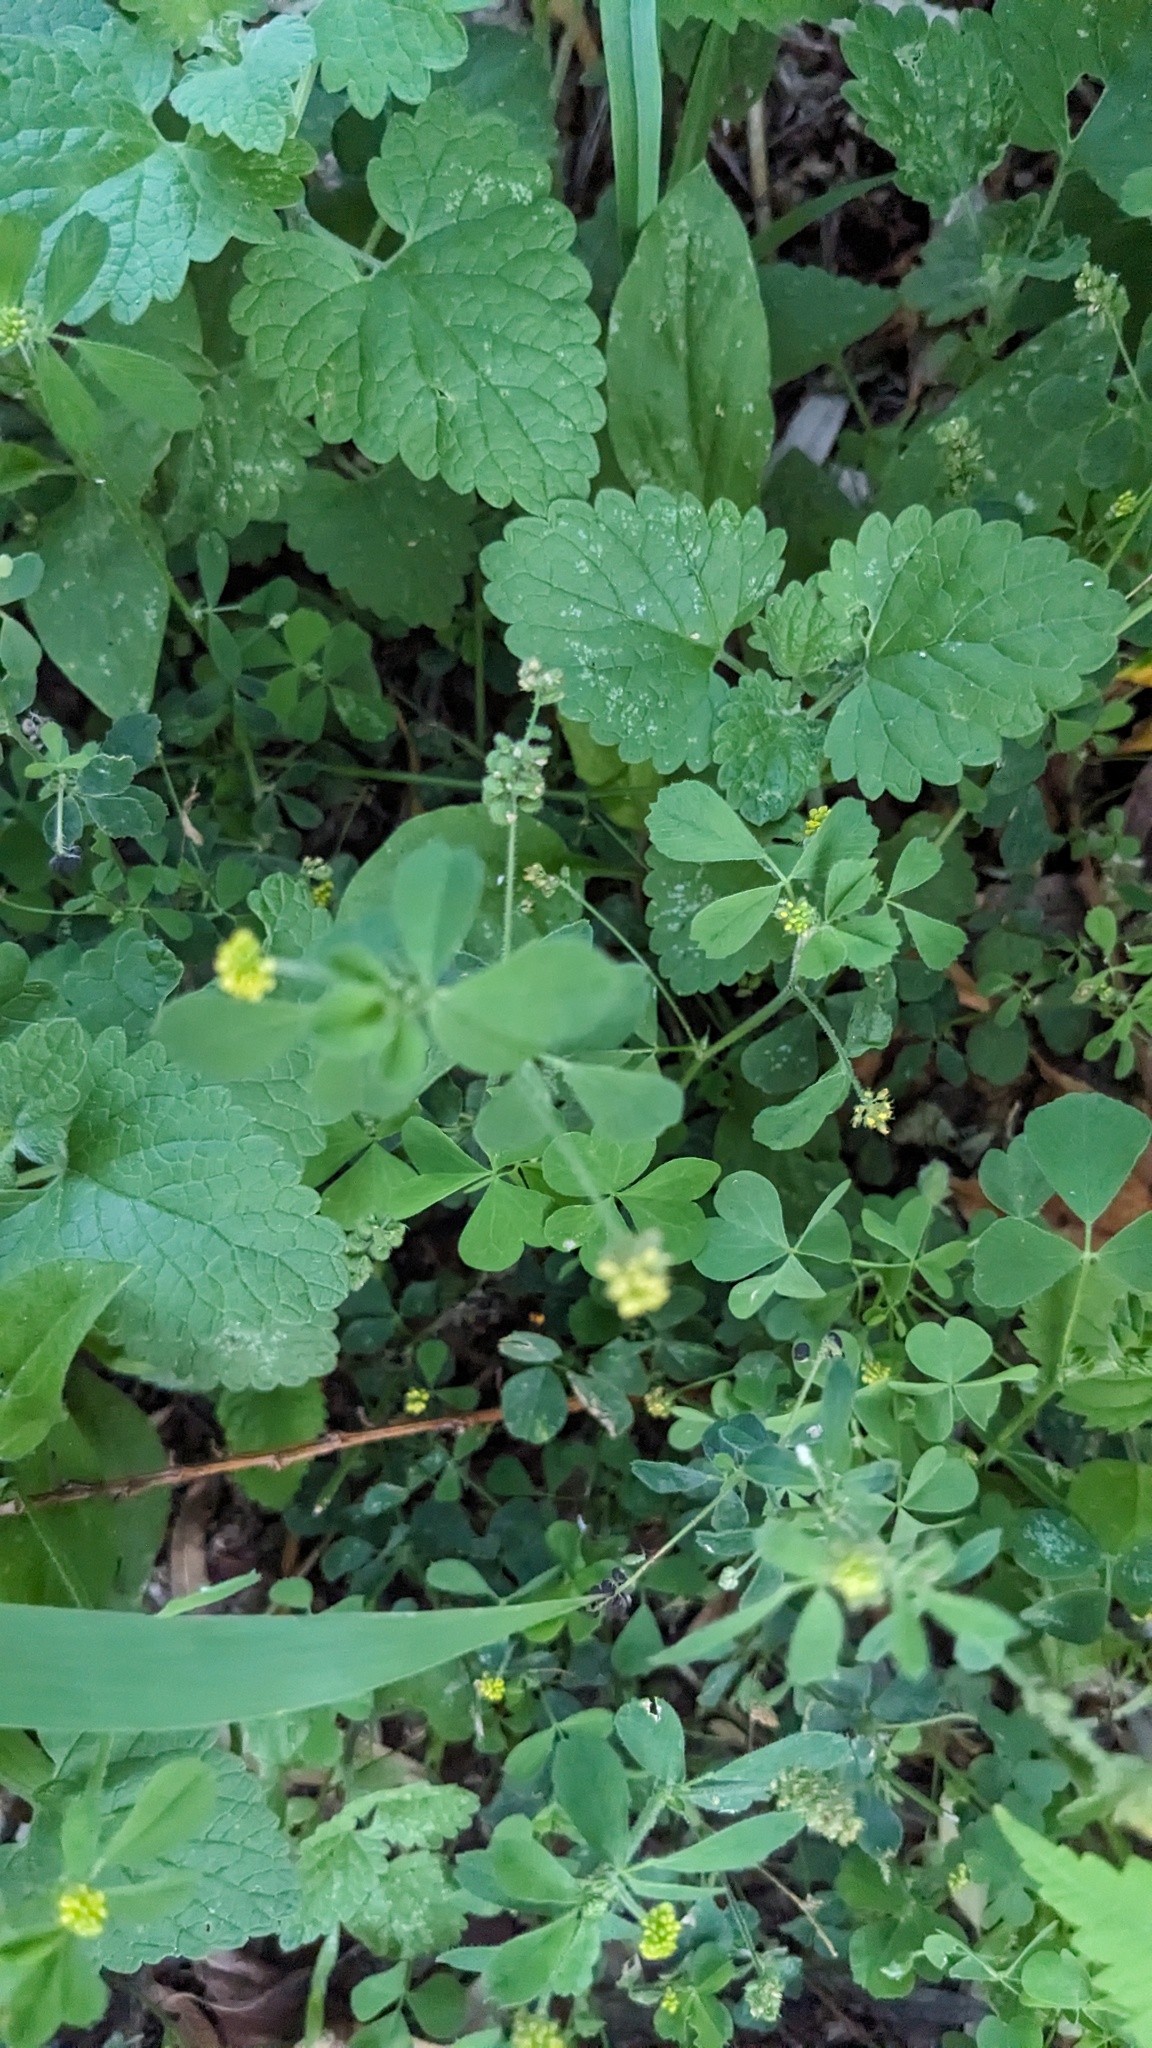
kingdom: Plantae
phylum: Tracheophyta
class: Magnoliopsida
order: Fabales
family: Fabaceae
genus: Medicago
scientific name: Medicago lupulina
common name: Black medick
